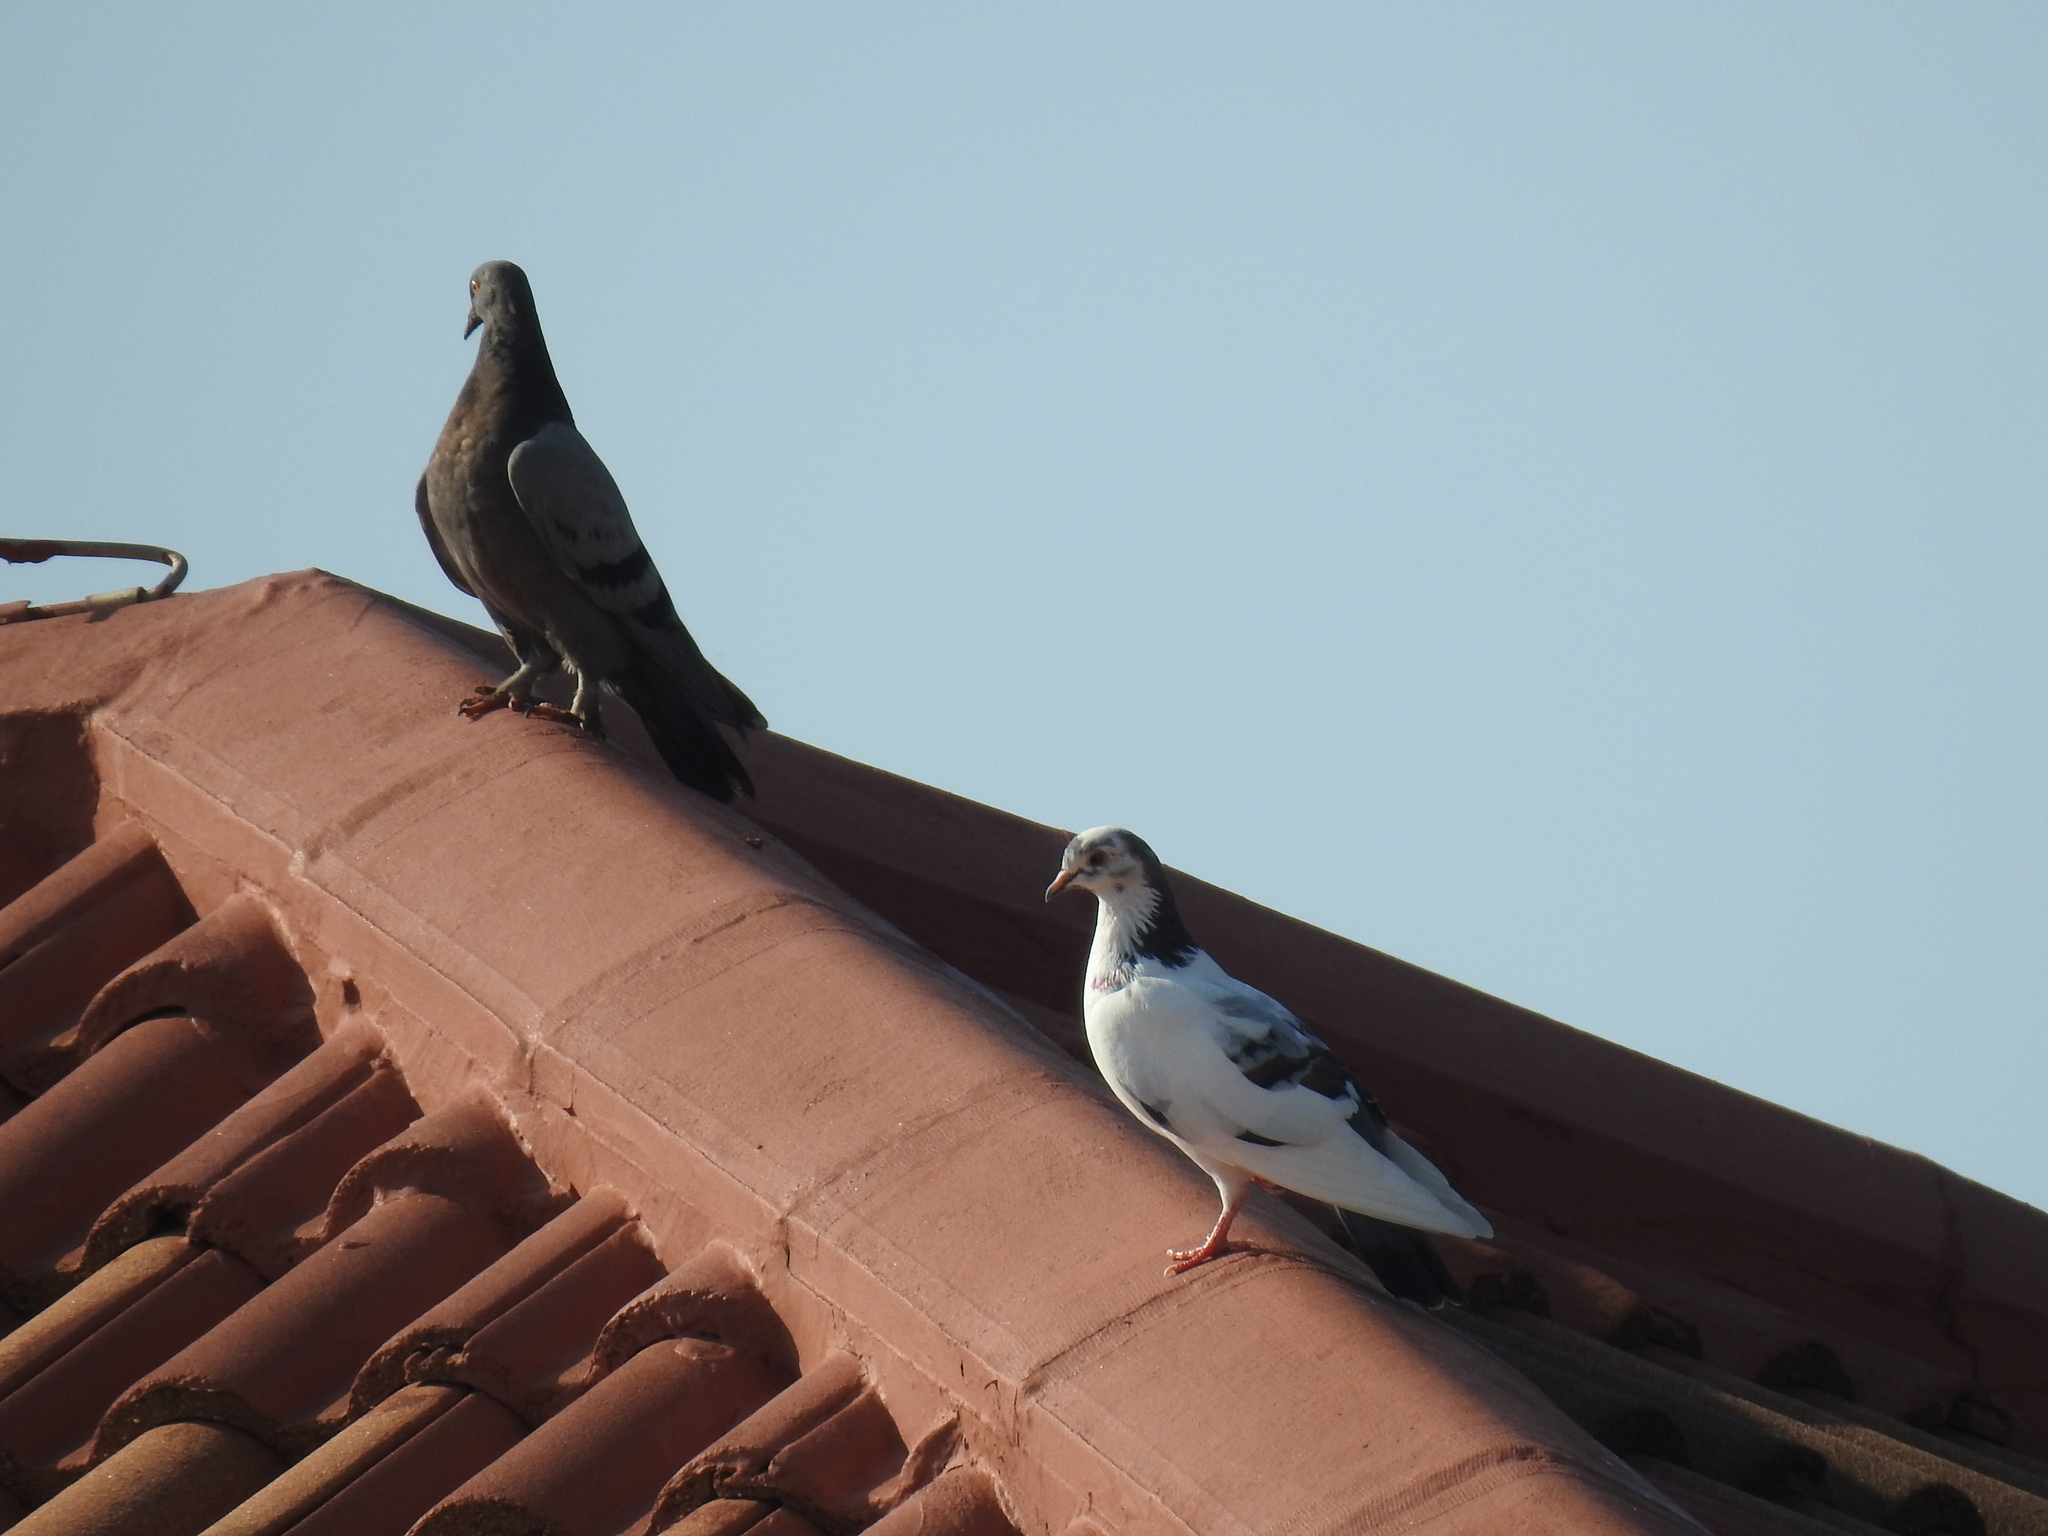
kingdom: Animalia
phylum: Chordata
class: Aves
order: Columbiformes
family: Columbidae
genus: Columba
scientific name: Columba livia
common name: Rock pigeon
